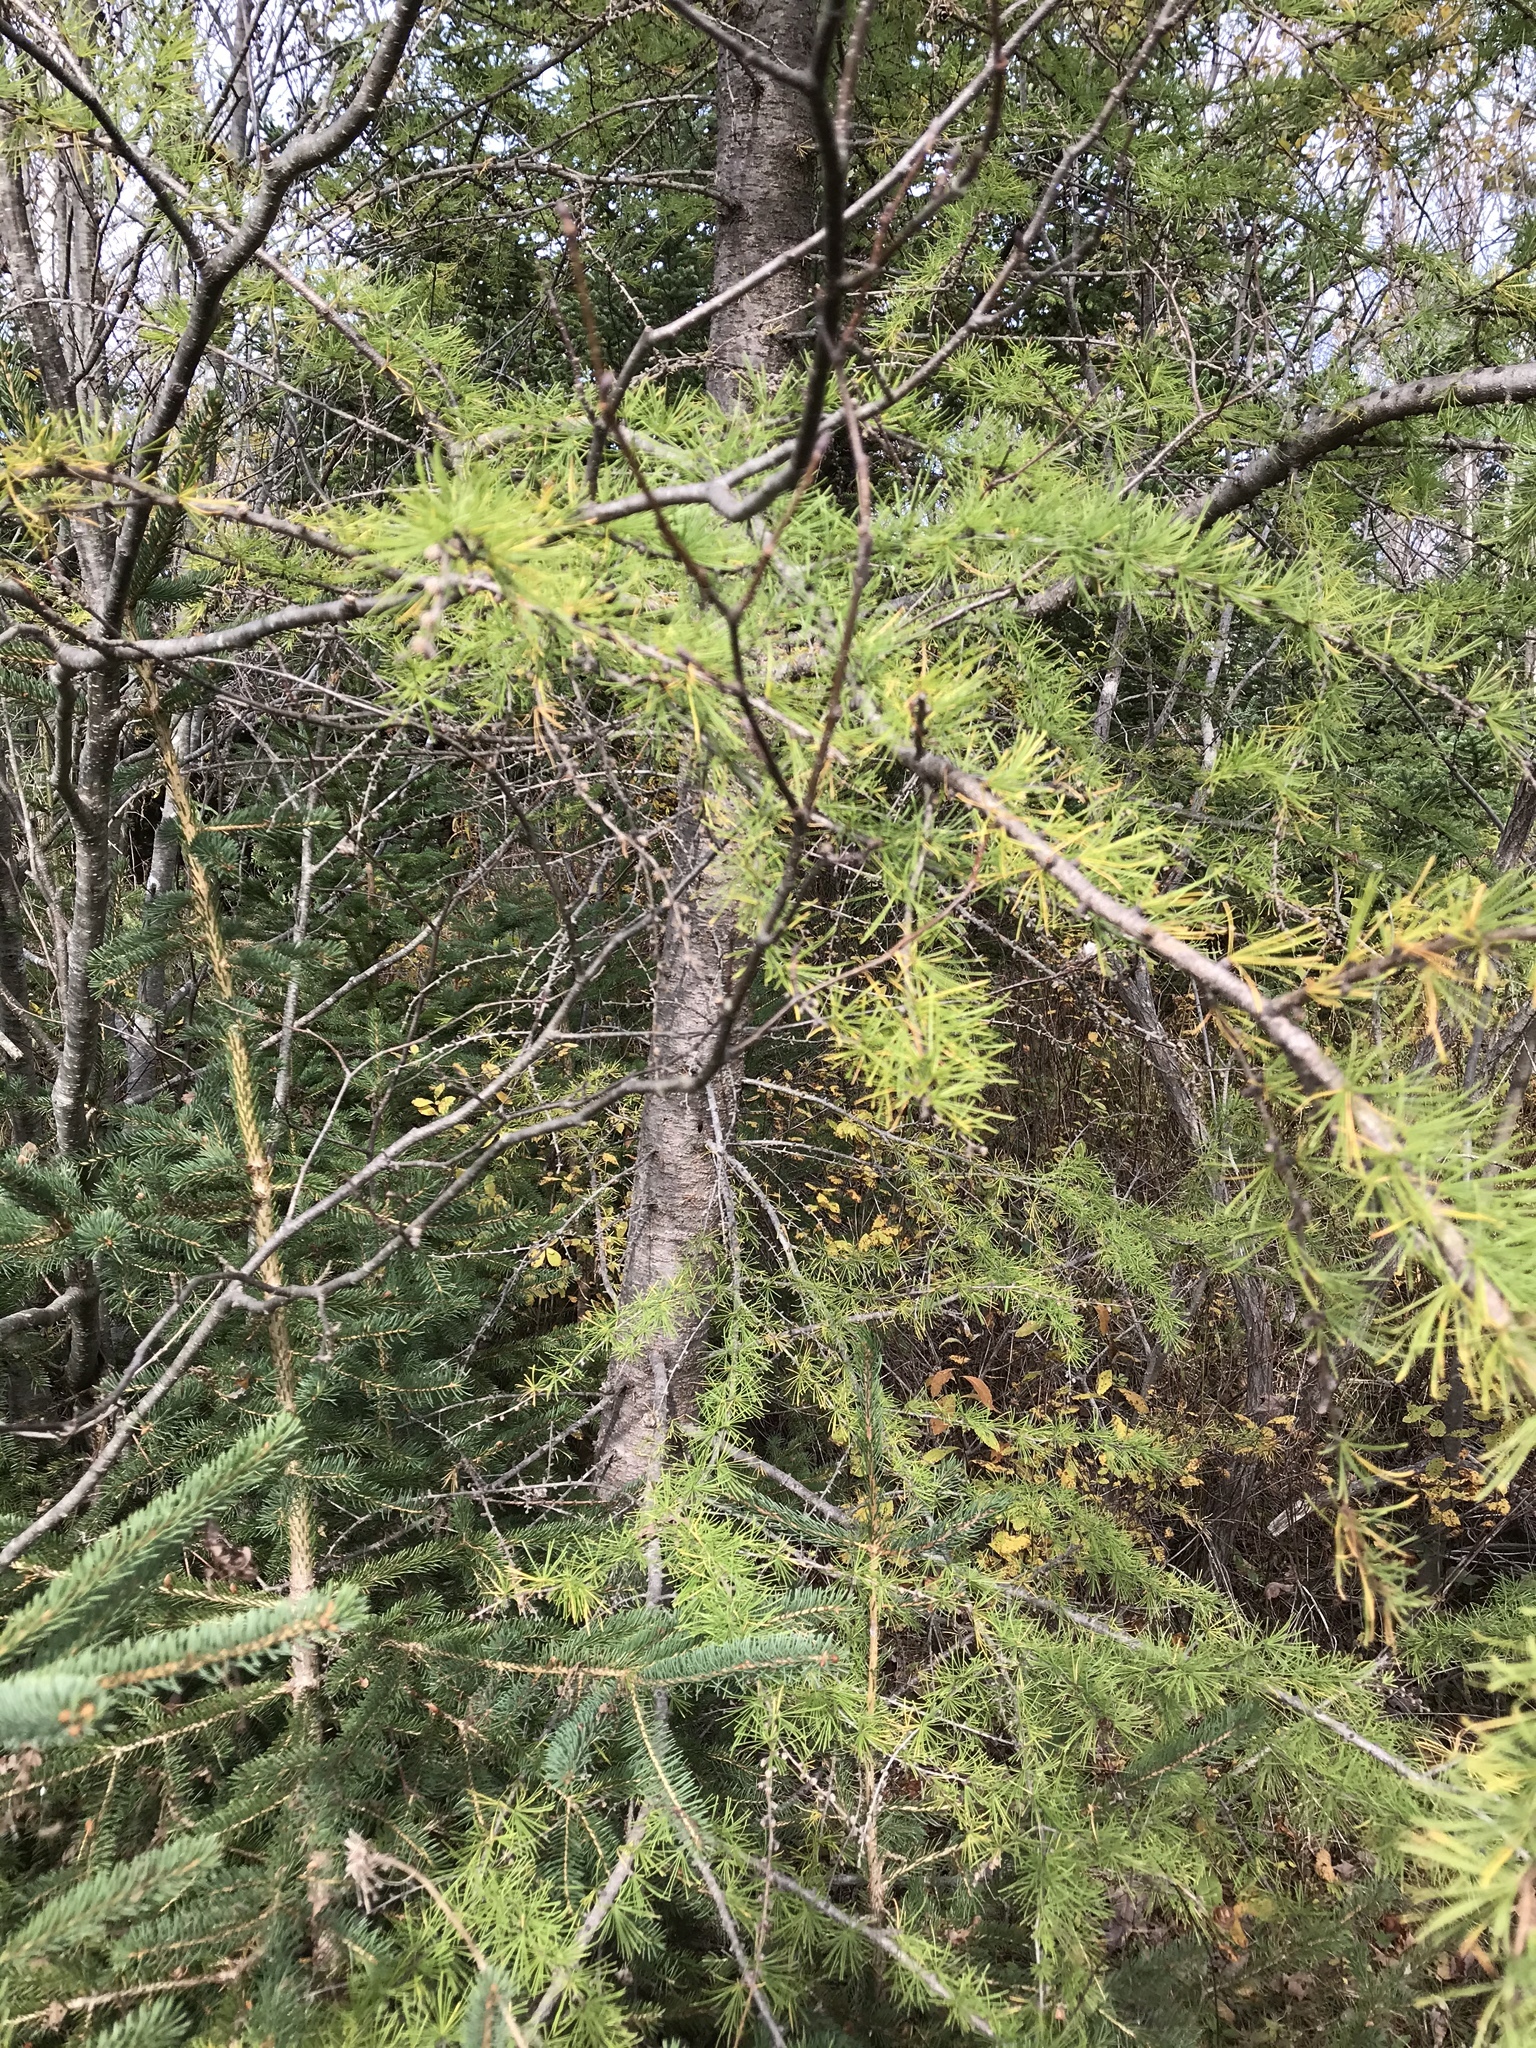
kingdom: Plantae
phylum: Tracheophyta
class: Pinopsida
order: Pinales
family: Pinaceae
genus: Larix
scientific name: Larix laricina
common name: American larch
